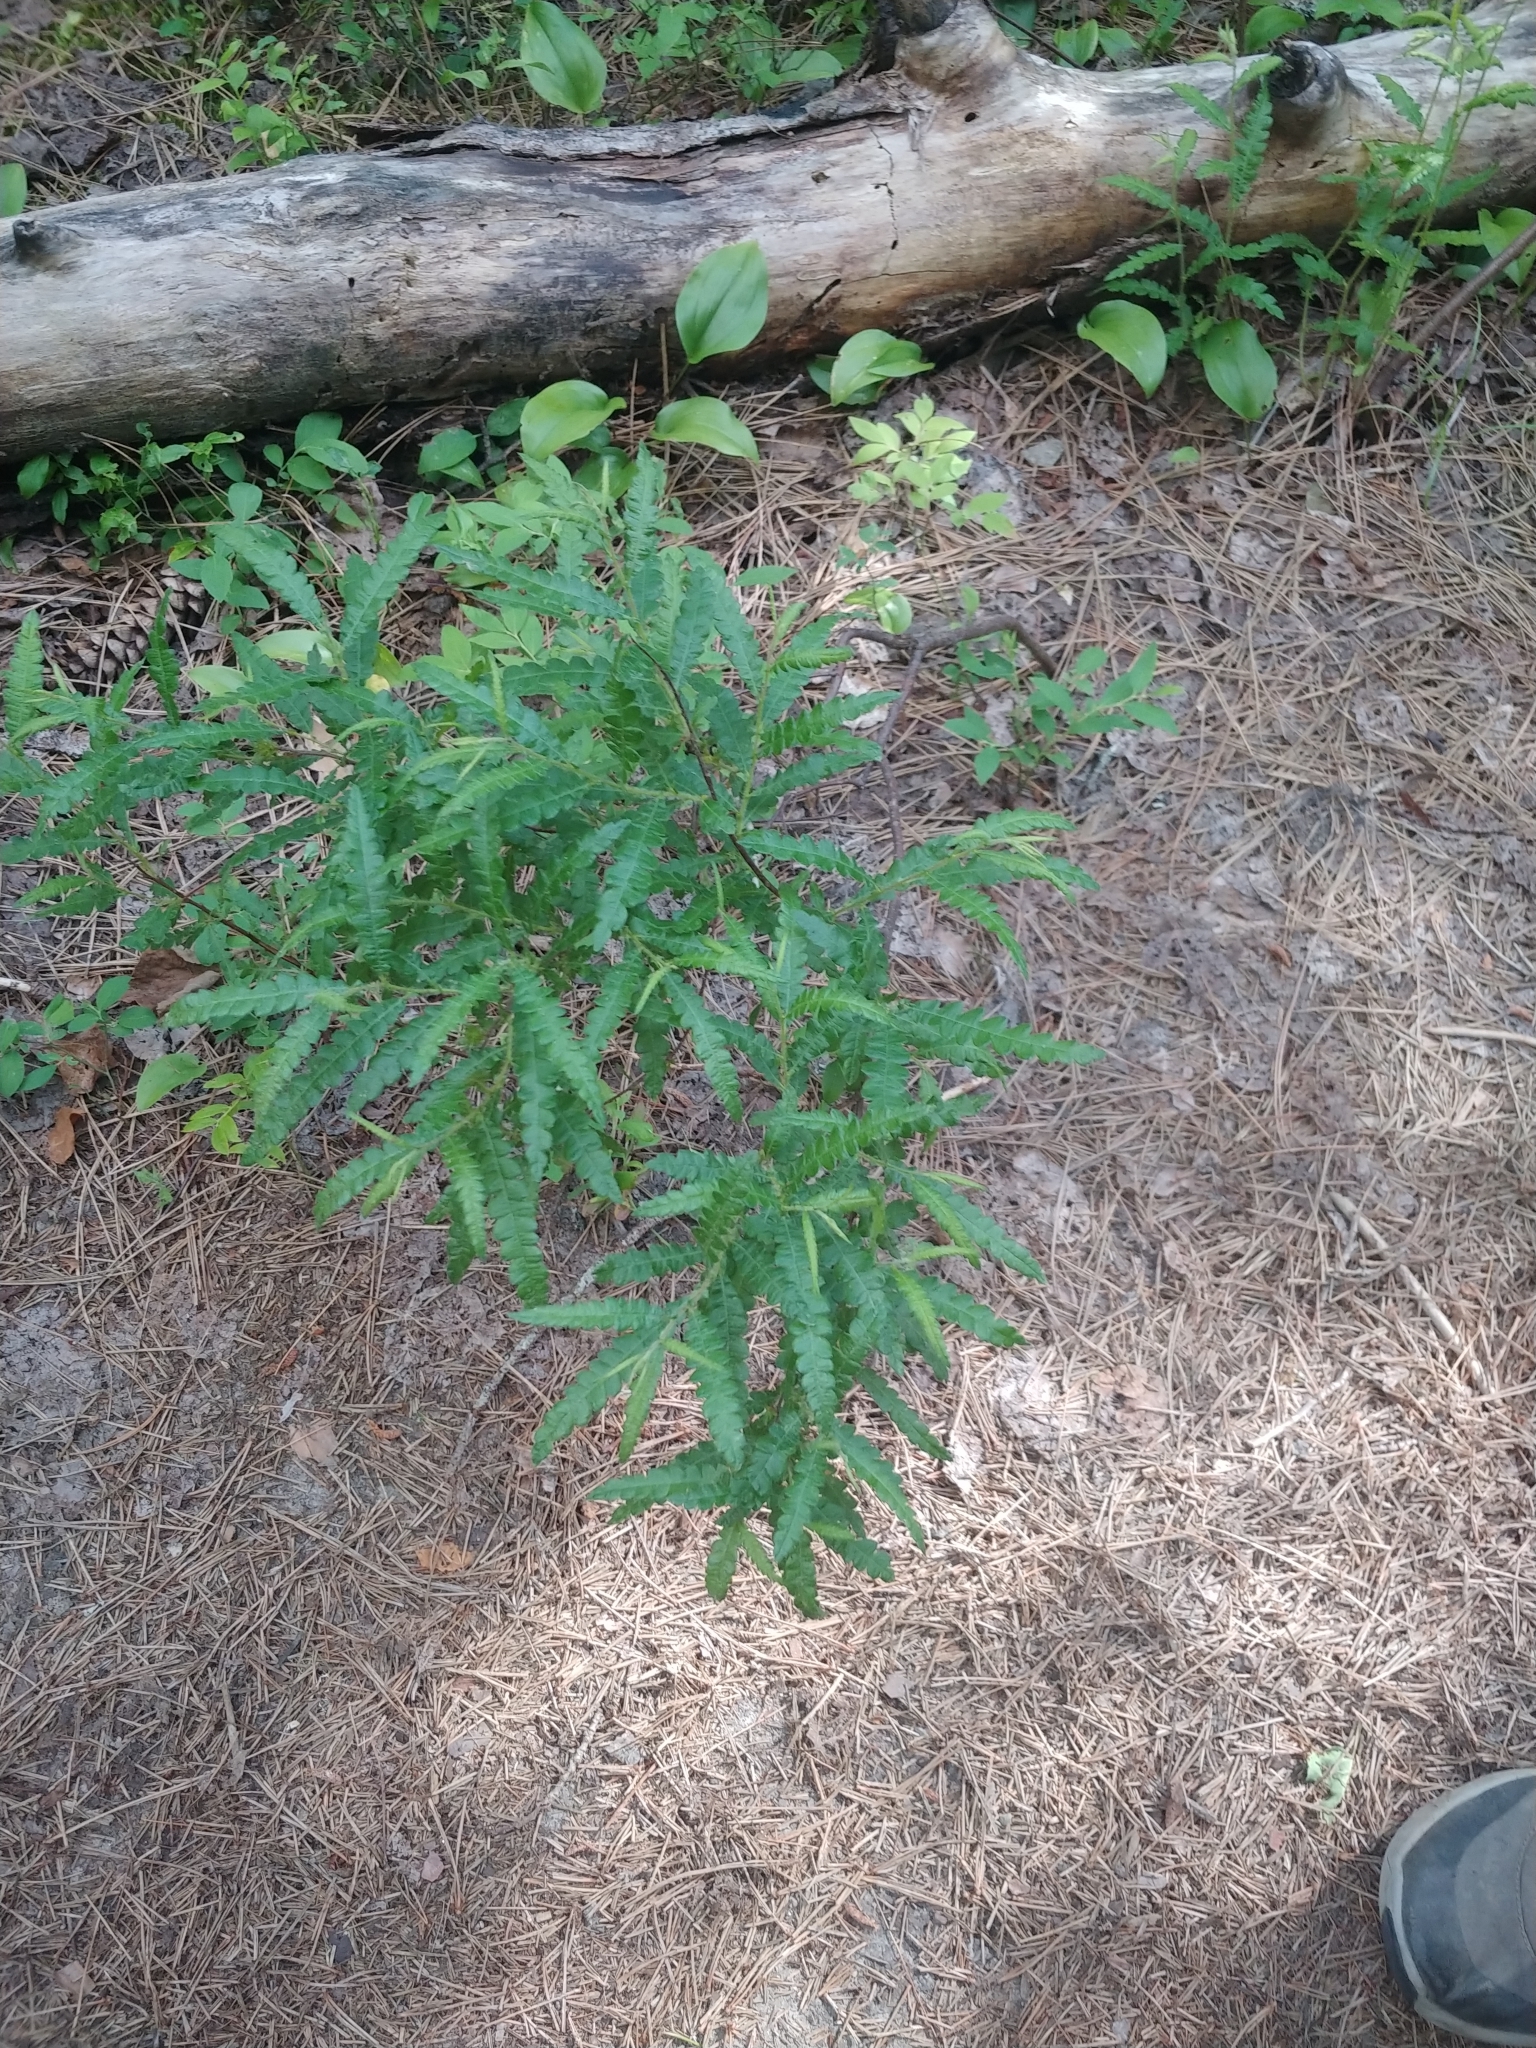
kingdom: Plantae
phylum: Tracheophyta
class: Magnoliopsida
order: Fagales
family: Myricaceae
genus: Comptonia
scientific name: Comptonia peregrina
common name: Sweet-fern
